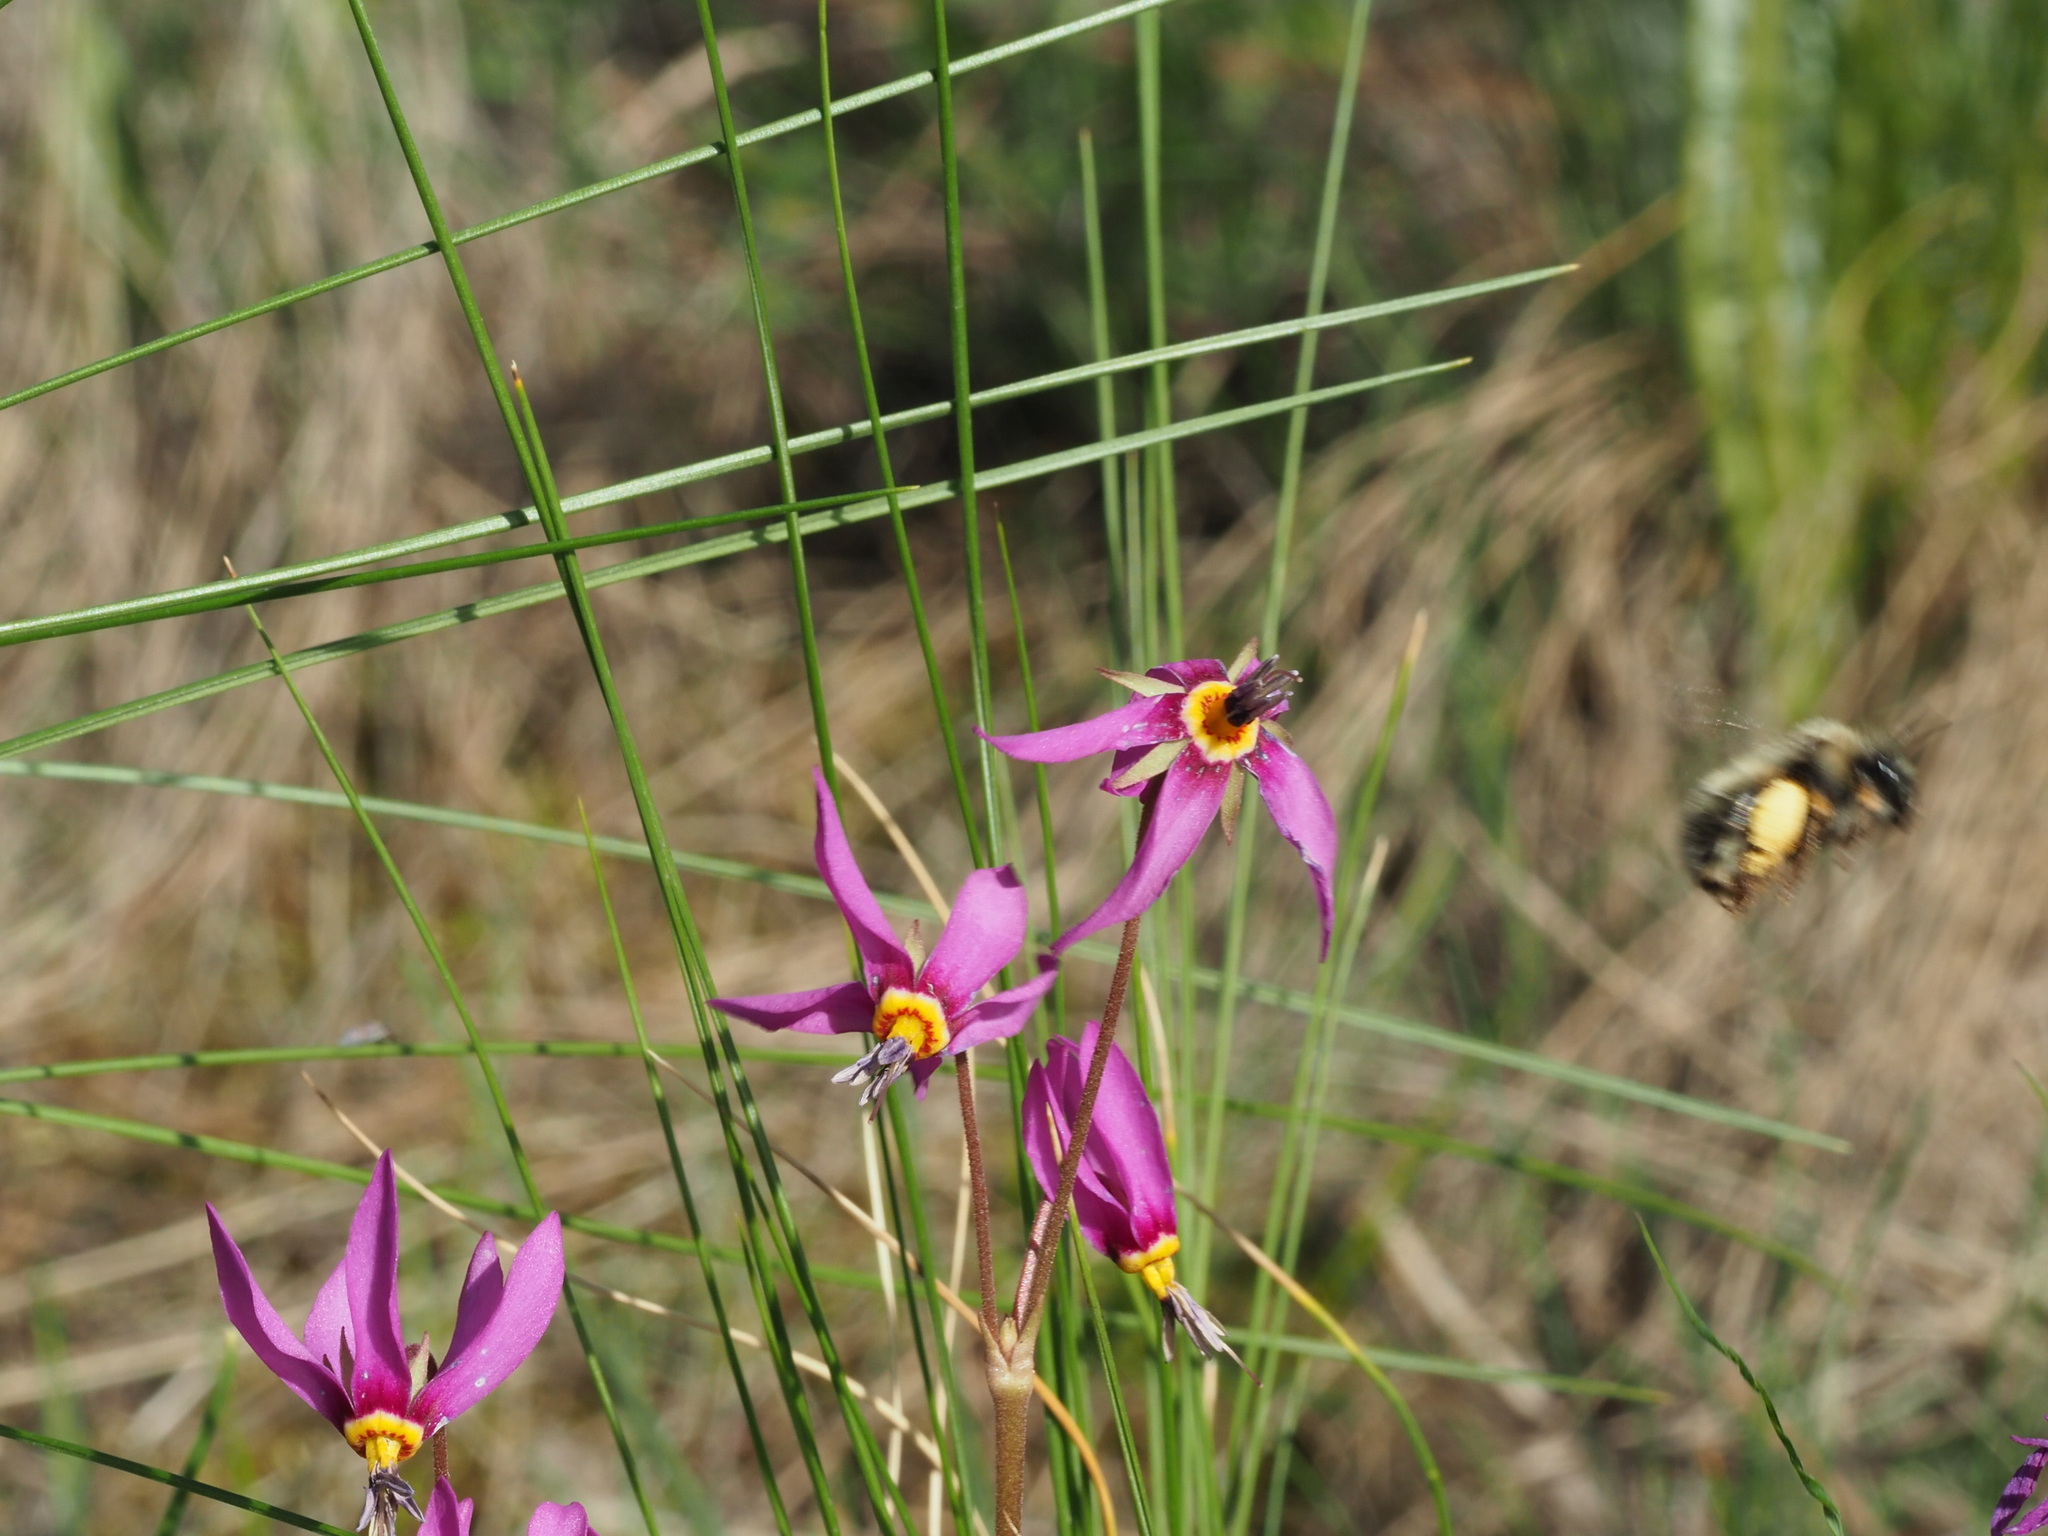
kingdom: Plantae
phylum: Tracheophyta
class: Magnoliopsida
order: Ericales
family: Primulaceae
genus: Dodecatheon
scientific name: Dodecatheon pulchellum
